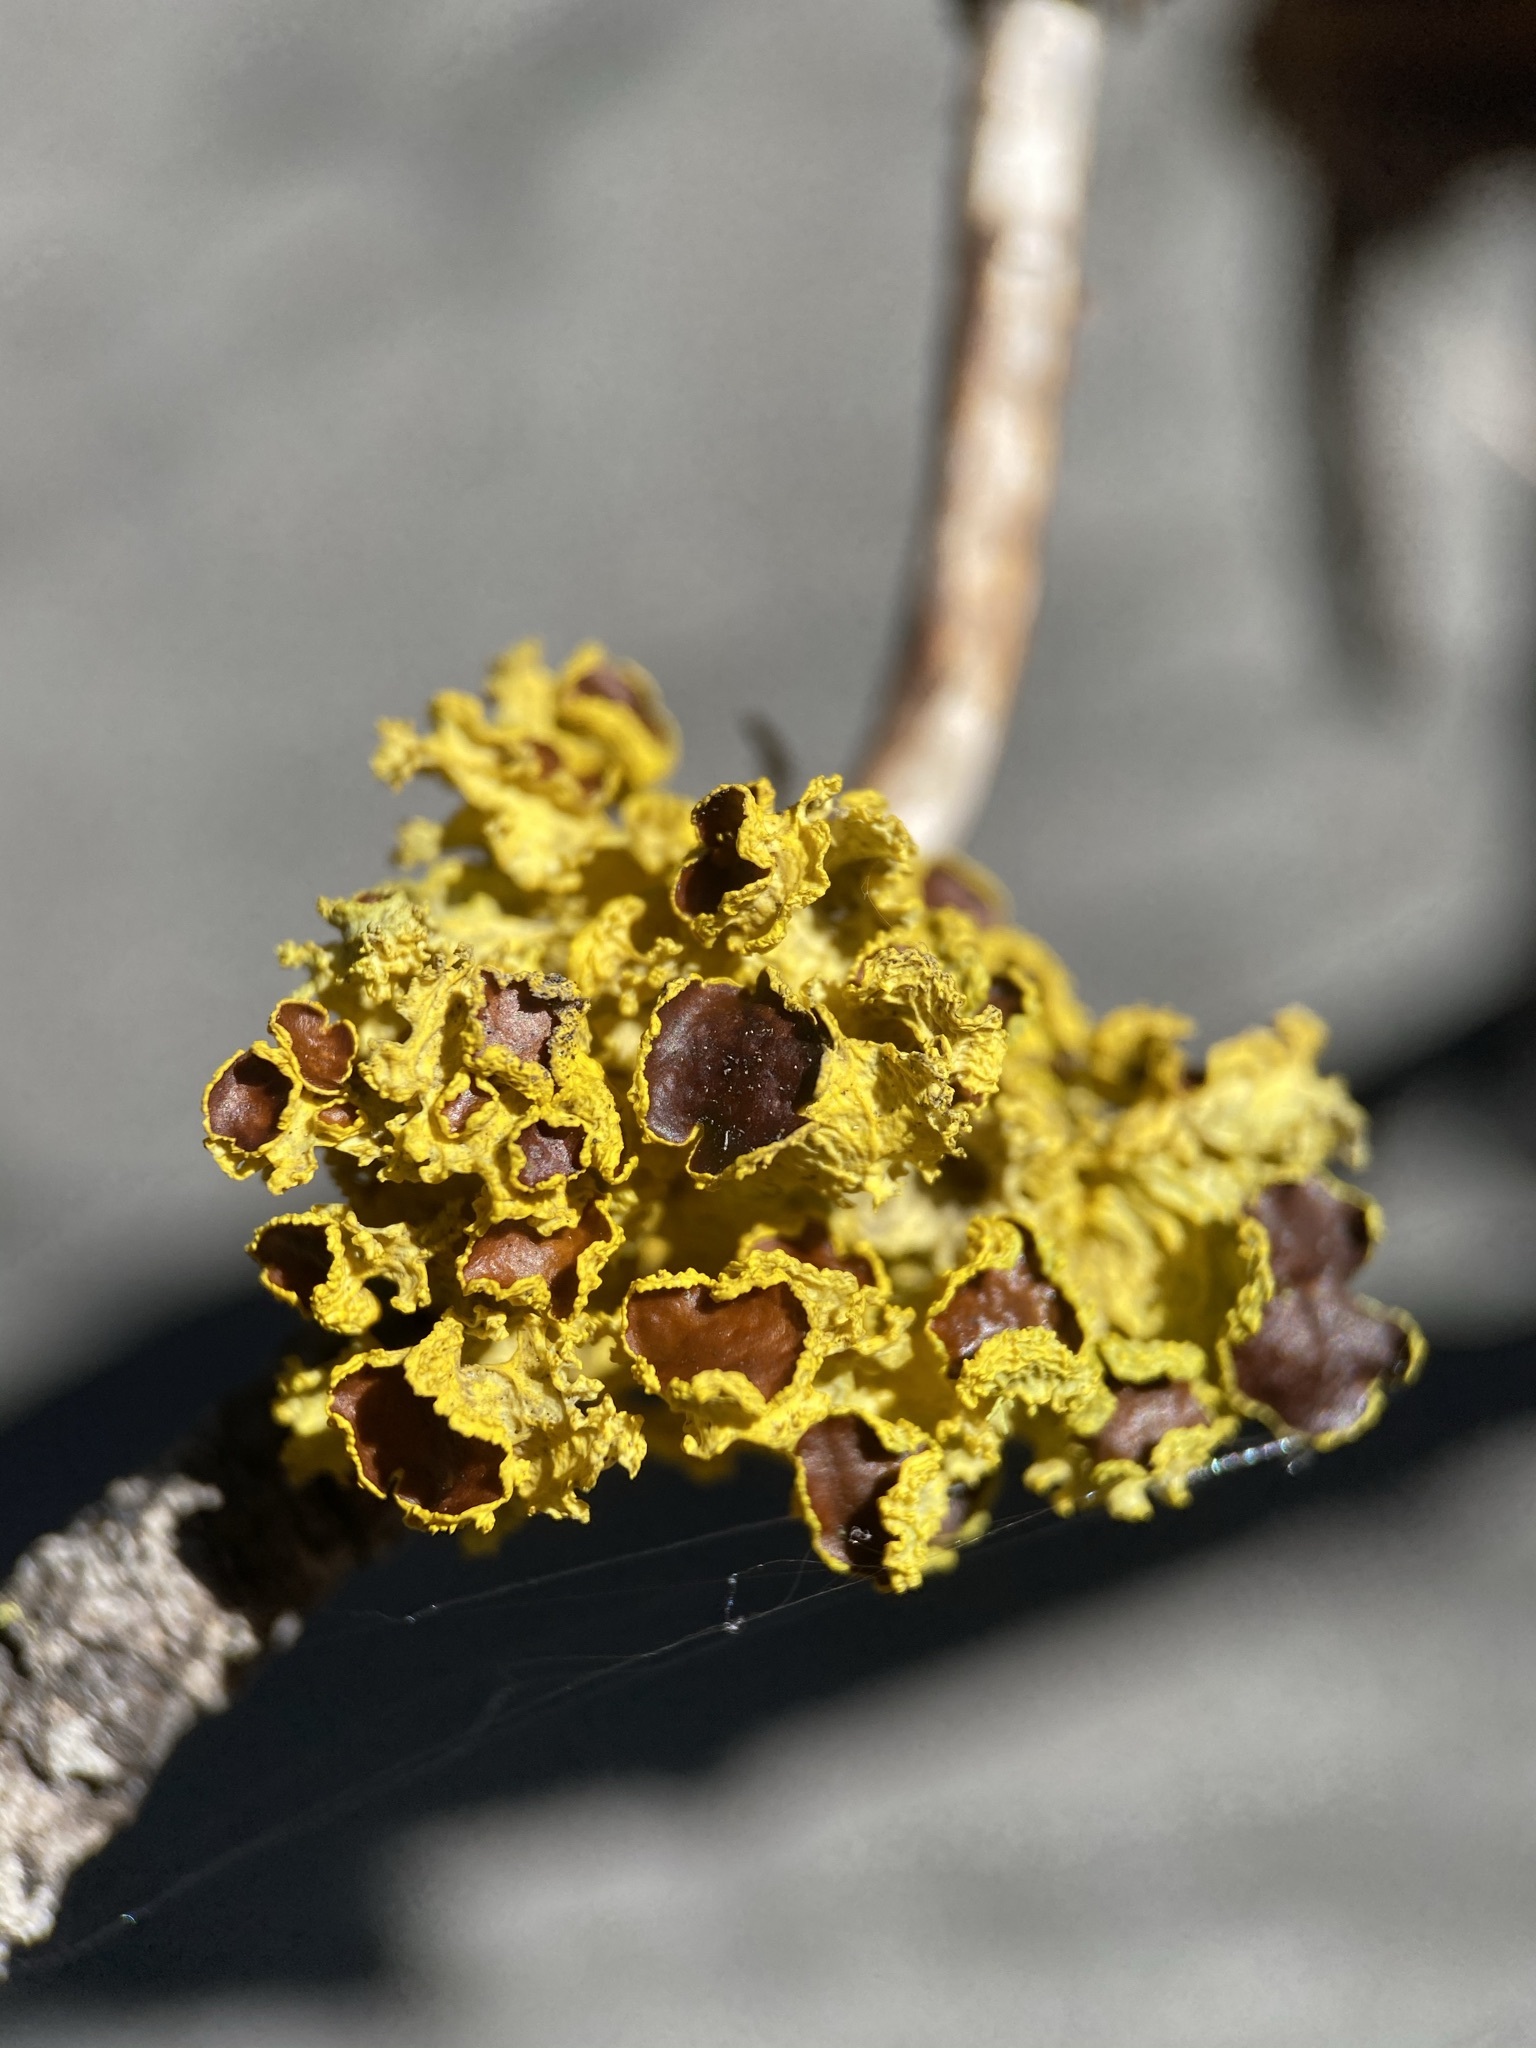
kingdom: Fungi
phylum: Ascomycota
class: Lecanoromycetes
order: Lecanorales
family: Parmeliaceae
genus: Vulpicida
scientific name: Vulpicida canadensis
